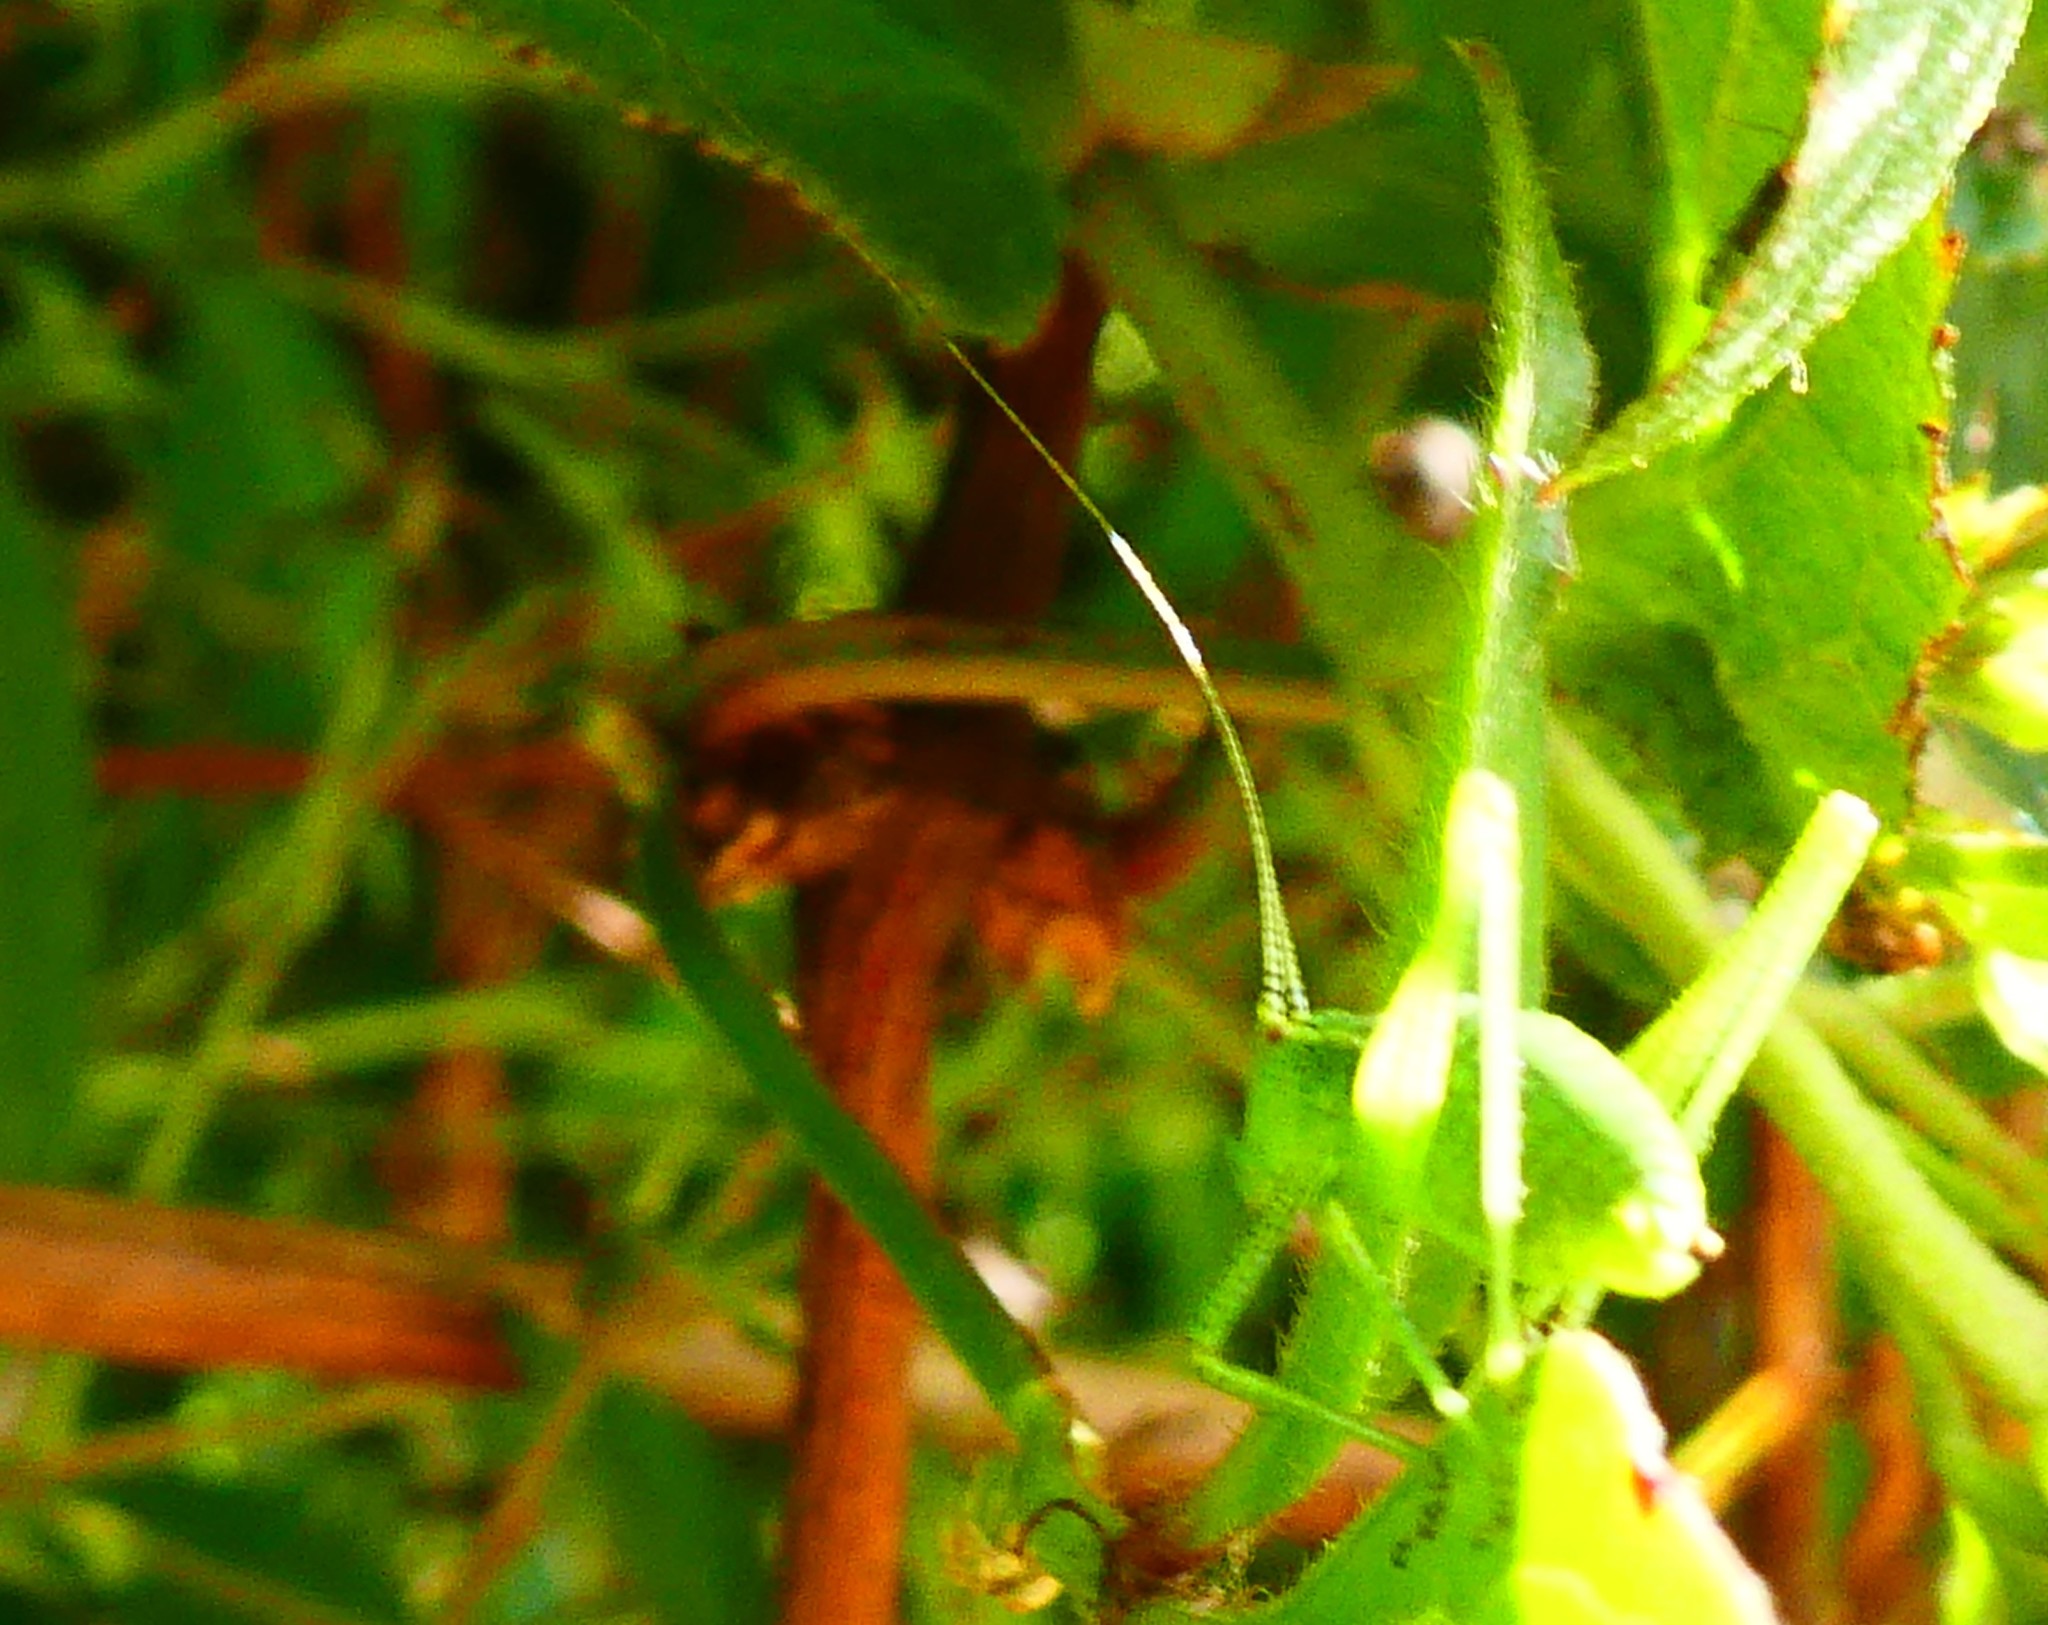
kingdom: Animalia
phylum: Arthropoda
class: Insecta
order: Orthoptera
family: Tettigoniidae
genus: Leptophyes
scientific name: Leptophyes punctatissima
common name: Speckled bush-cricket
